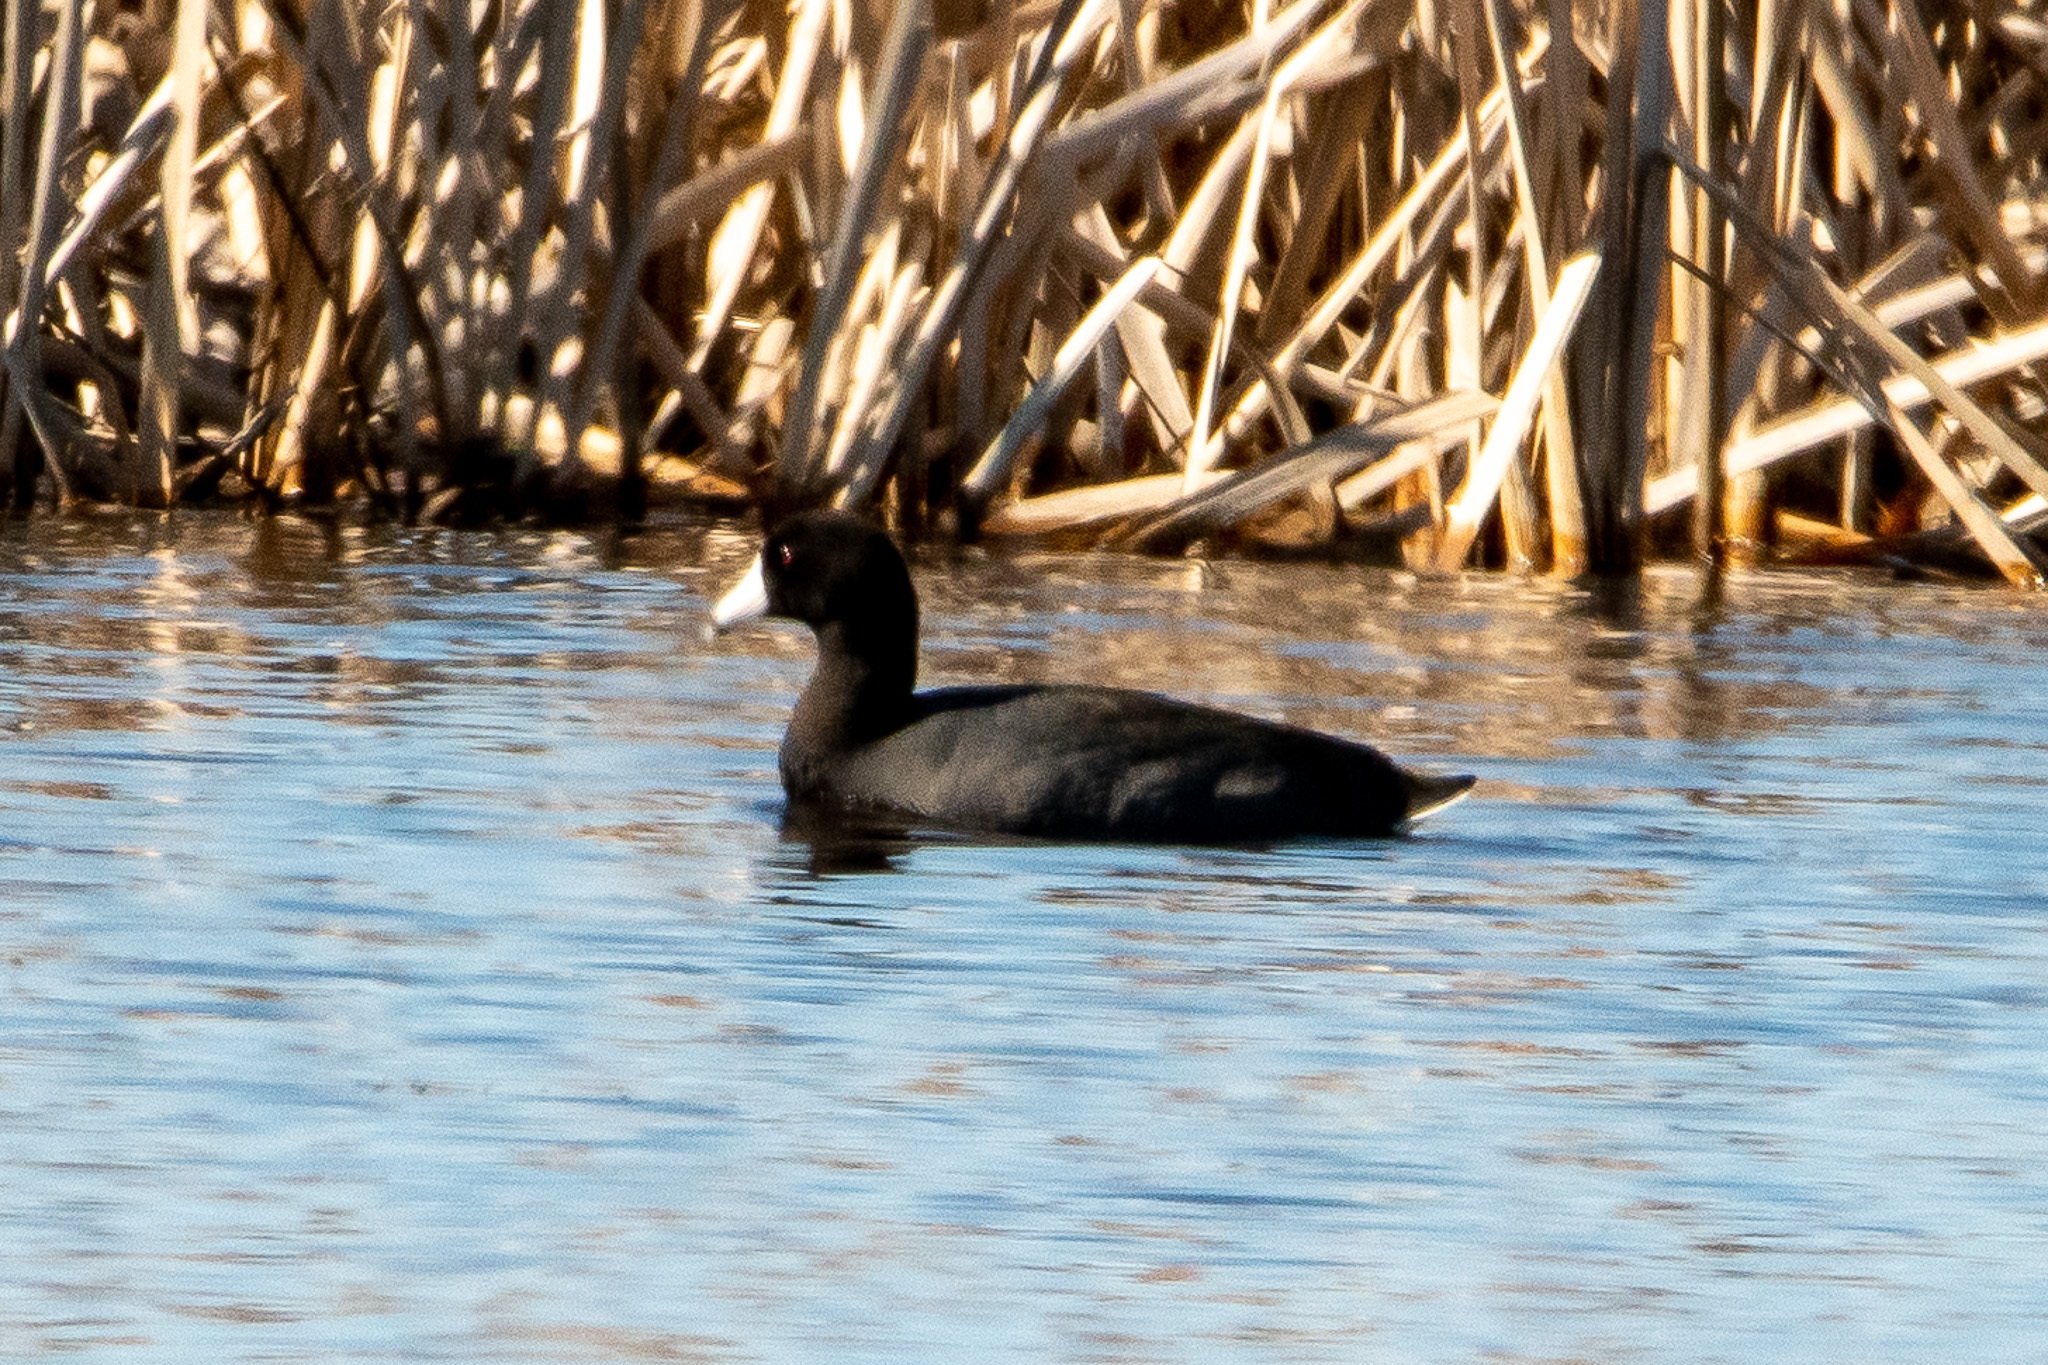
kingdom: Animalia
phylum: Chordata
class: Aves
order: Gruiformes
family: Rallidae
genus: Fulica
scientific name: Fulica americana
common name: American coot
